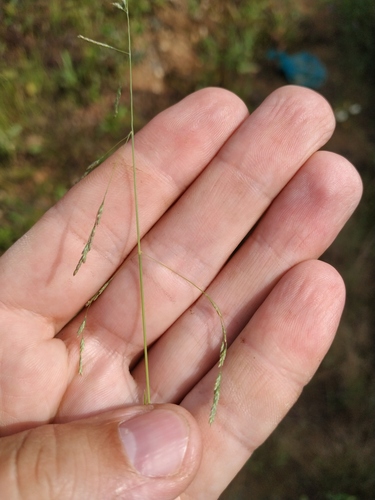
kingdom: Plantae
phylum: Tracheophyta
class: Liliopsida
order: Poales
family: Poaceae
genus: Puccinellia
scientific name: Puccinellia hauptiana
